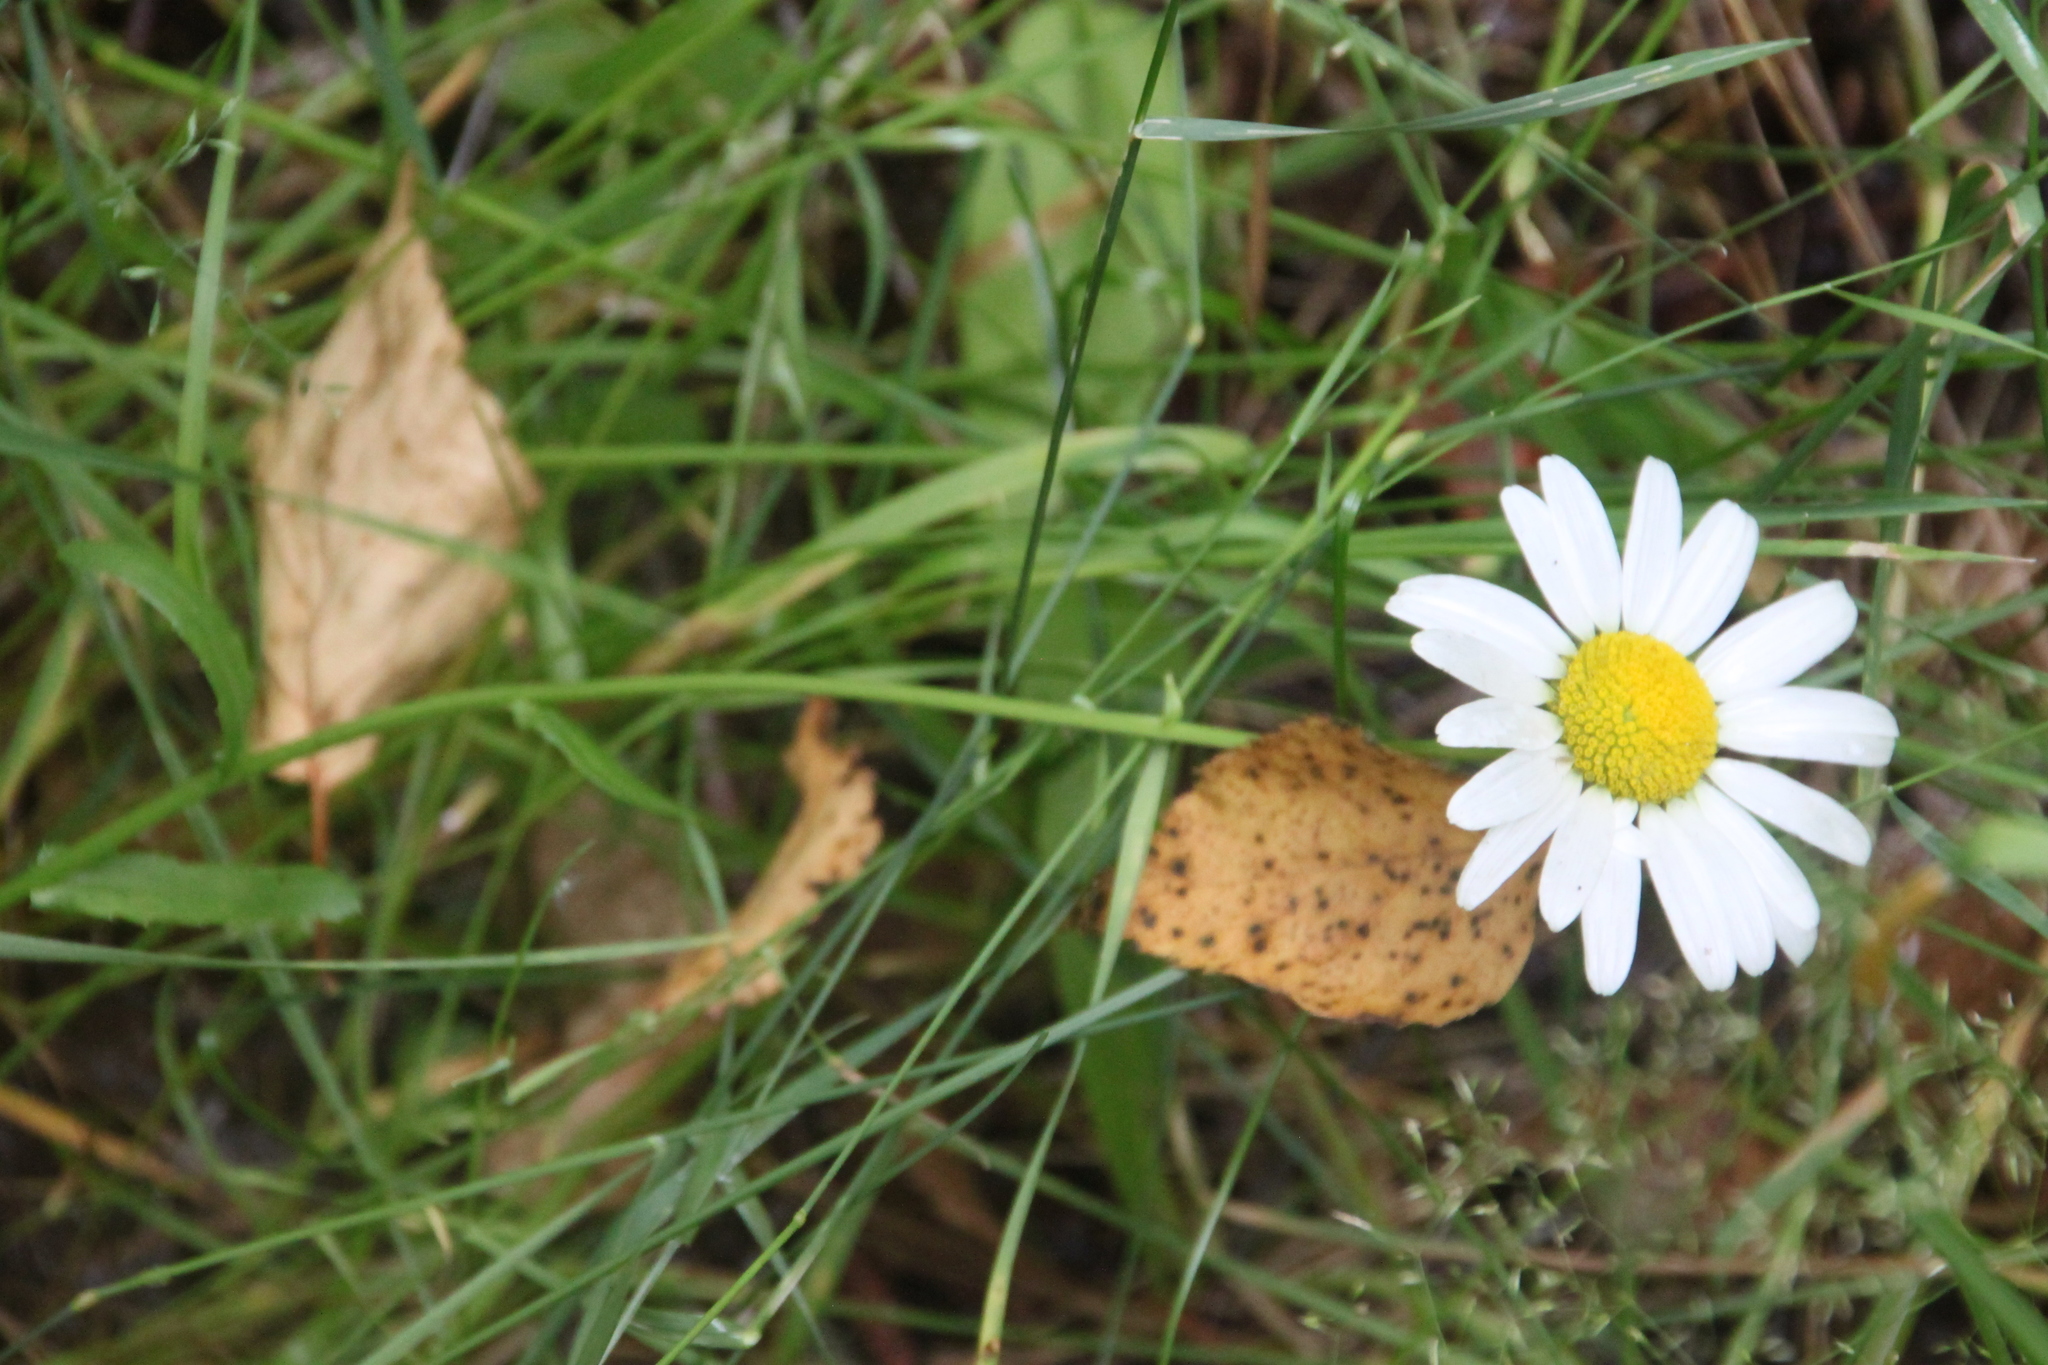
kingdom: Plantae
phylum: Tracheophyta
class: Magnoliopsida
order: Asterales
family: Asteraceae
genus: Leucanthemum
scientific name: Leucanthemum vulgare
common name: Oxeye daisy
